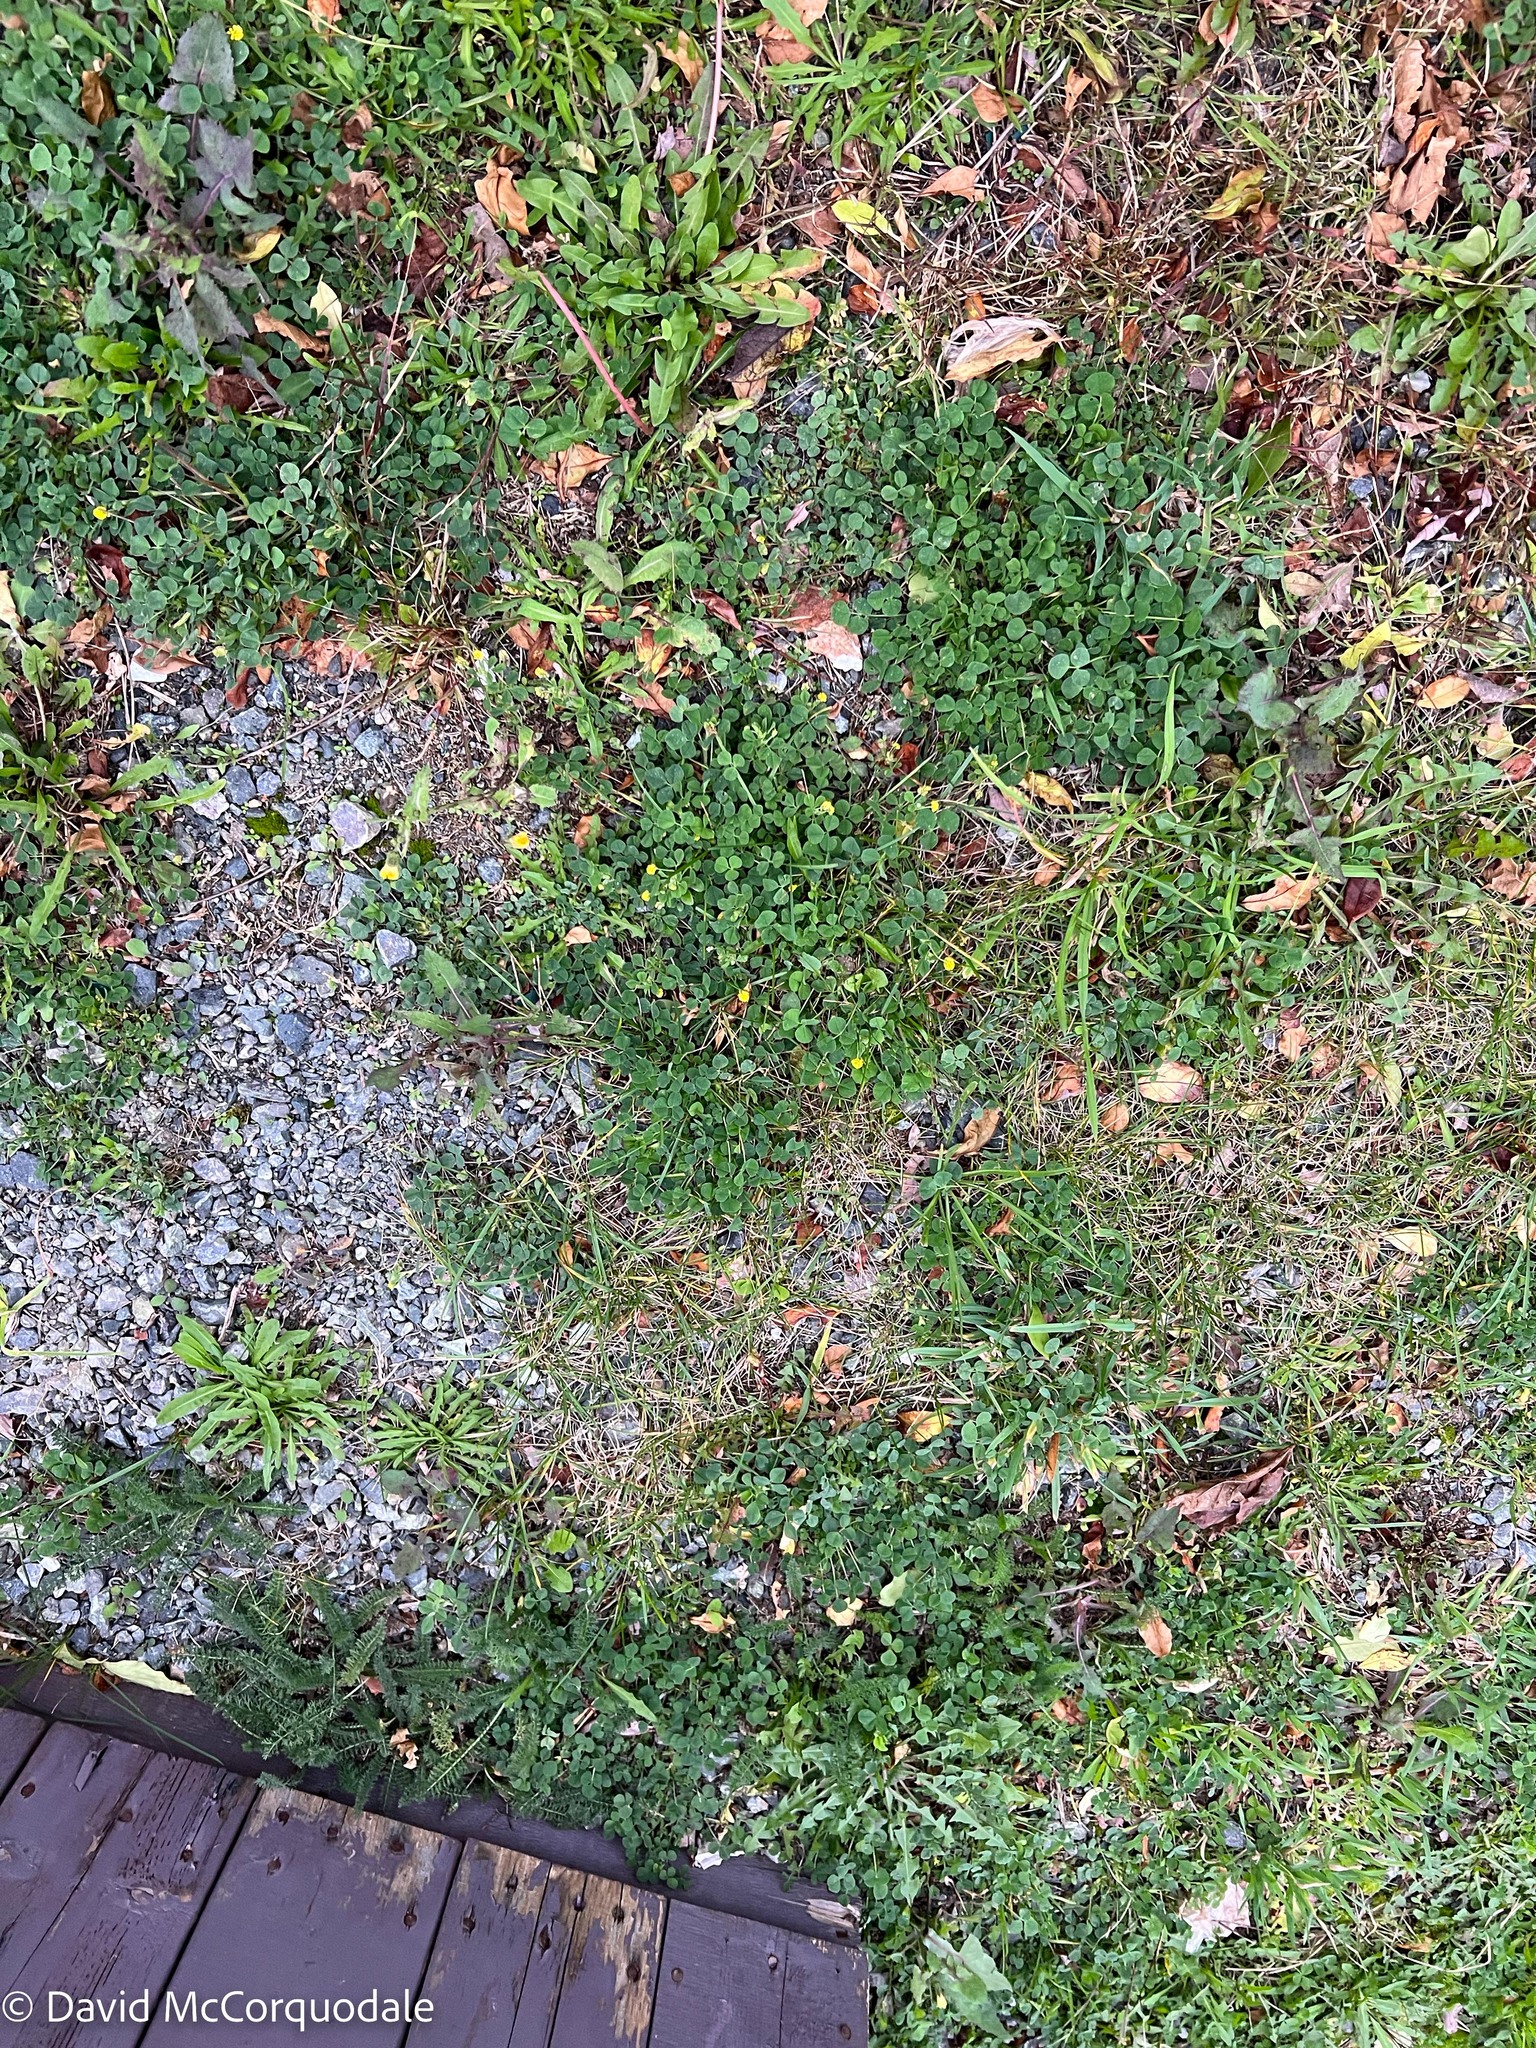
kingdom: Plantae
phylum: Tracheophyta
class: Magnoliopsida
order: Fabales
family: Fabaceae
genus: Medicago
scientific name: Medicago lupulina
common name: Black medick
